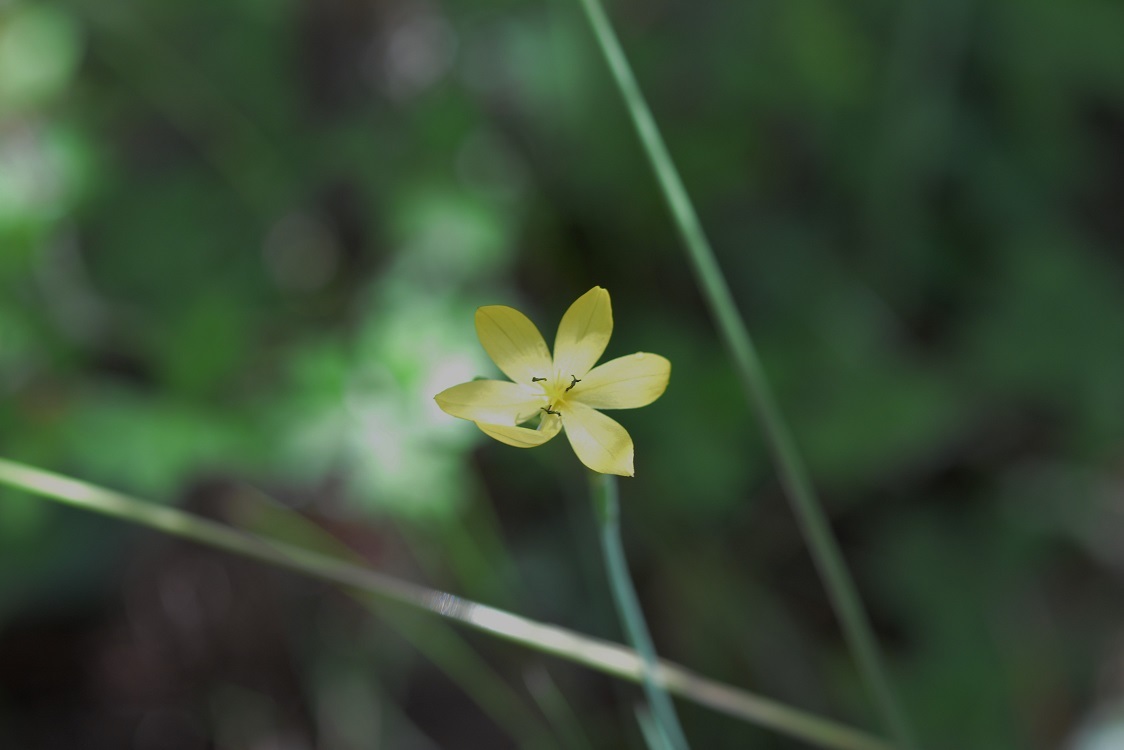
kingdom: Plantae
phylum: Tracheophyta
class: Liliopsida
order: Asparagales
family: Iridaceae
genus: Sisyrinchium
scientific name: Sisyrinchium angustissimum
